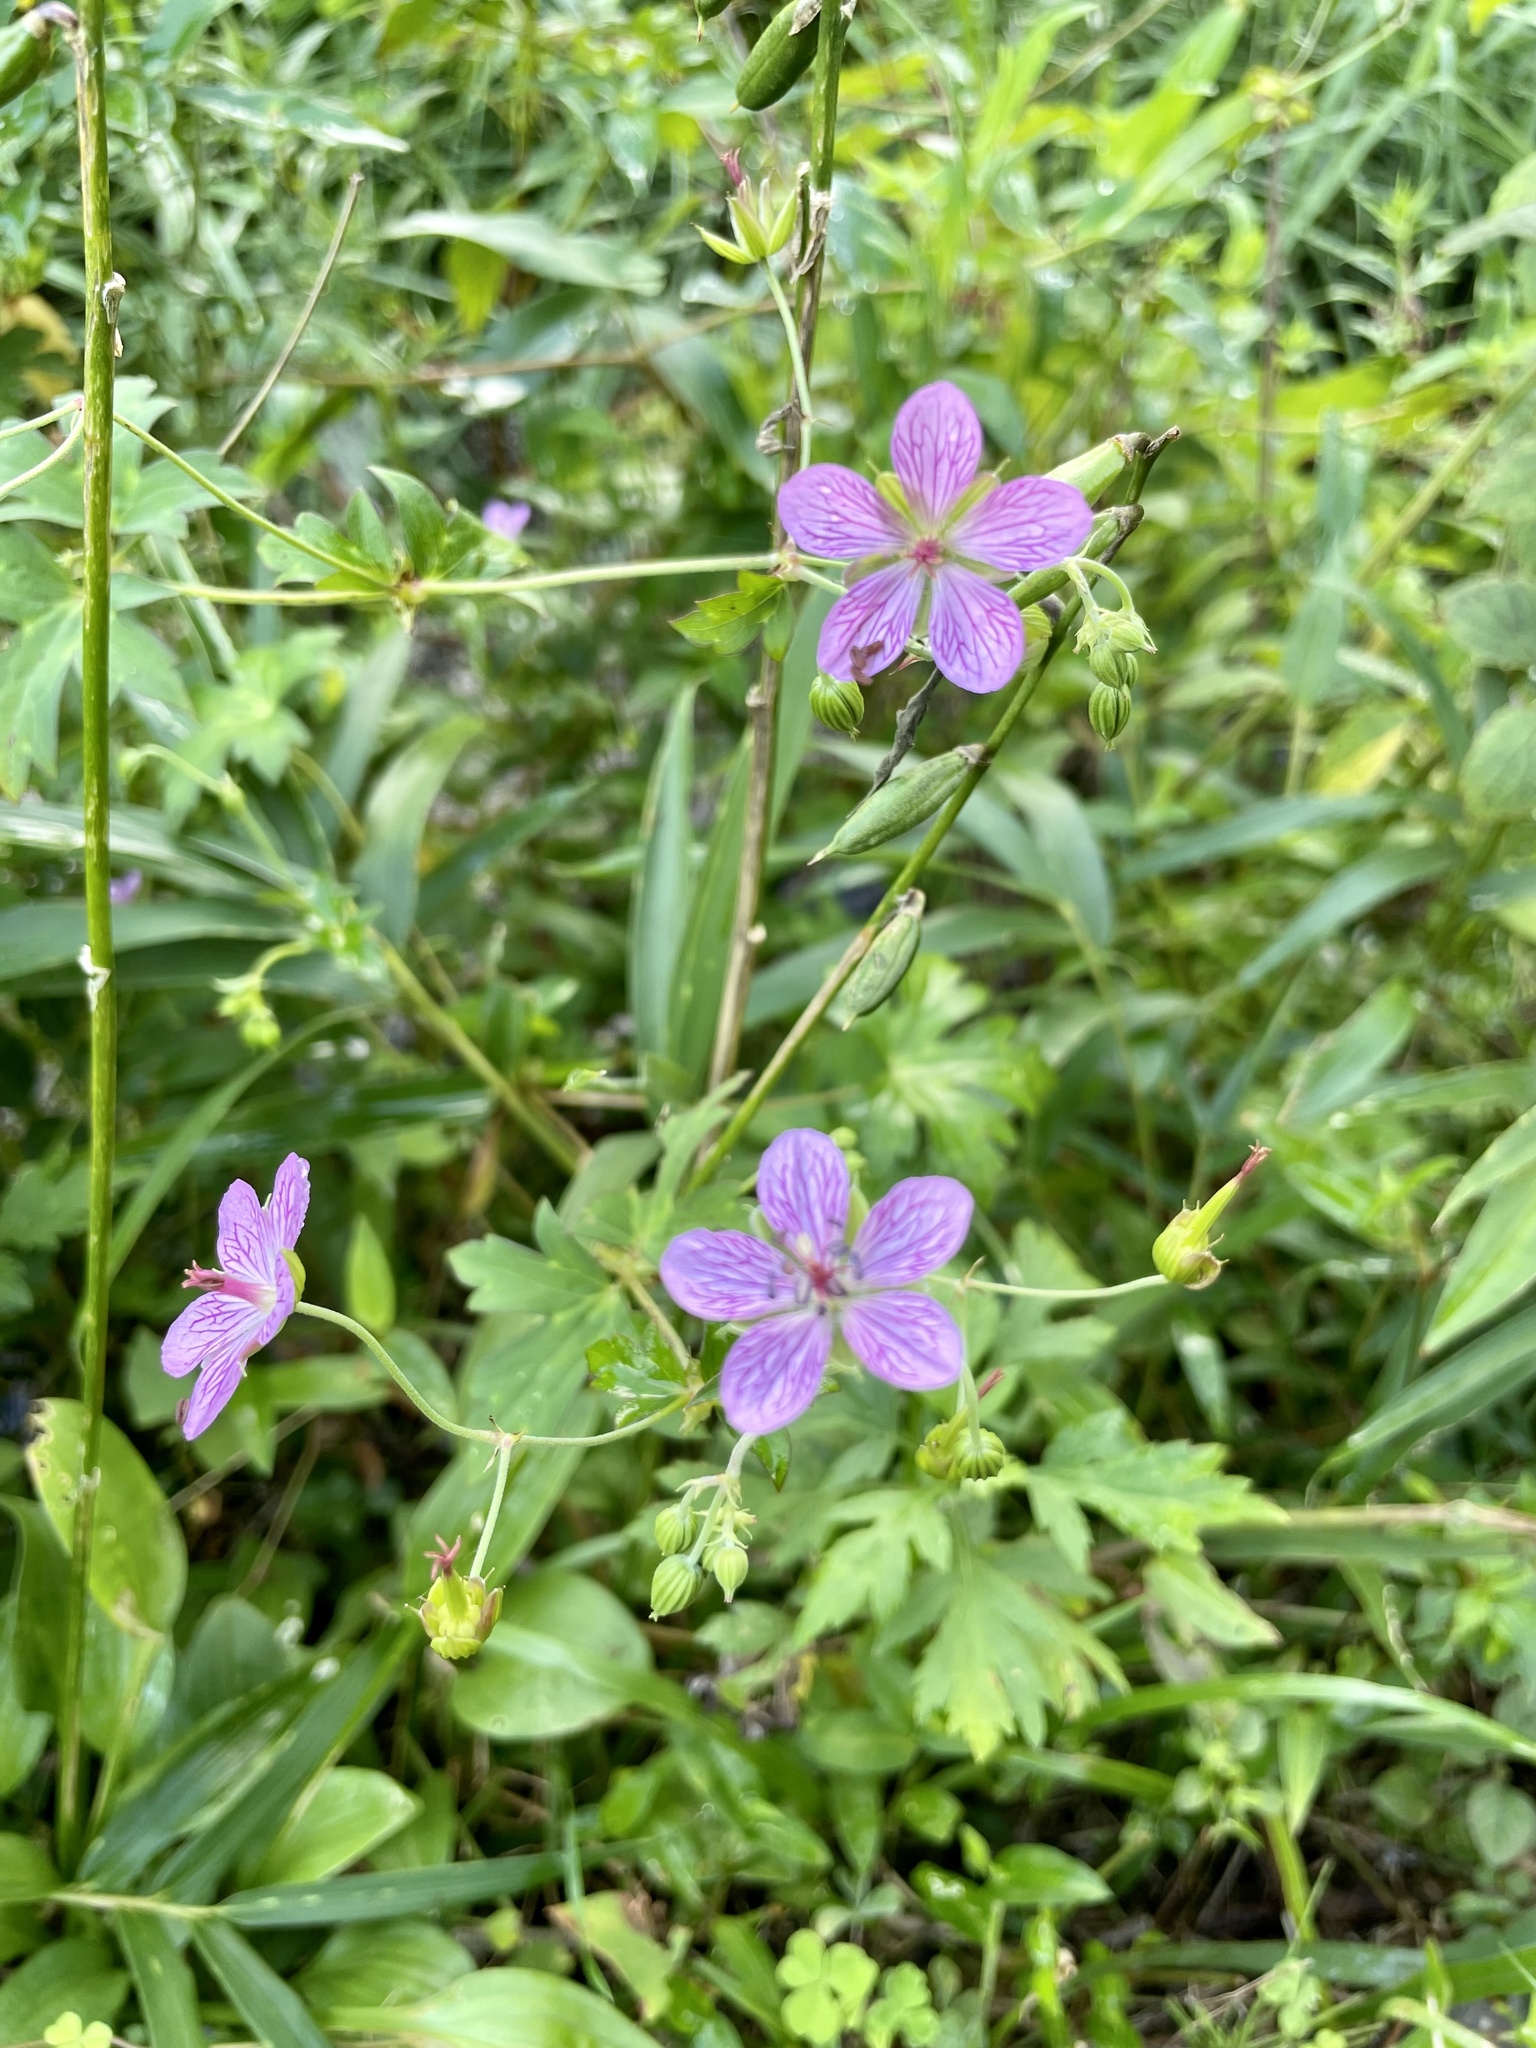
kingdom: Plantae
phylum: Tracheophyta
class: Magnoliopsida
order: Geraniales
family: Geraniaceae
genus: Geranium
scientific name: Geranium yoshinoi
